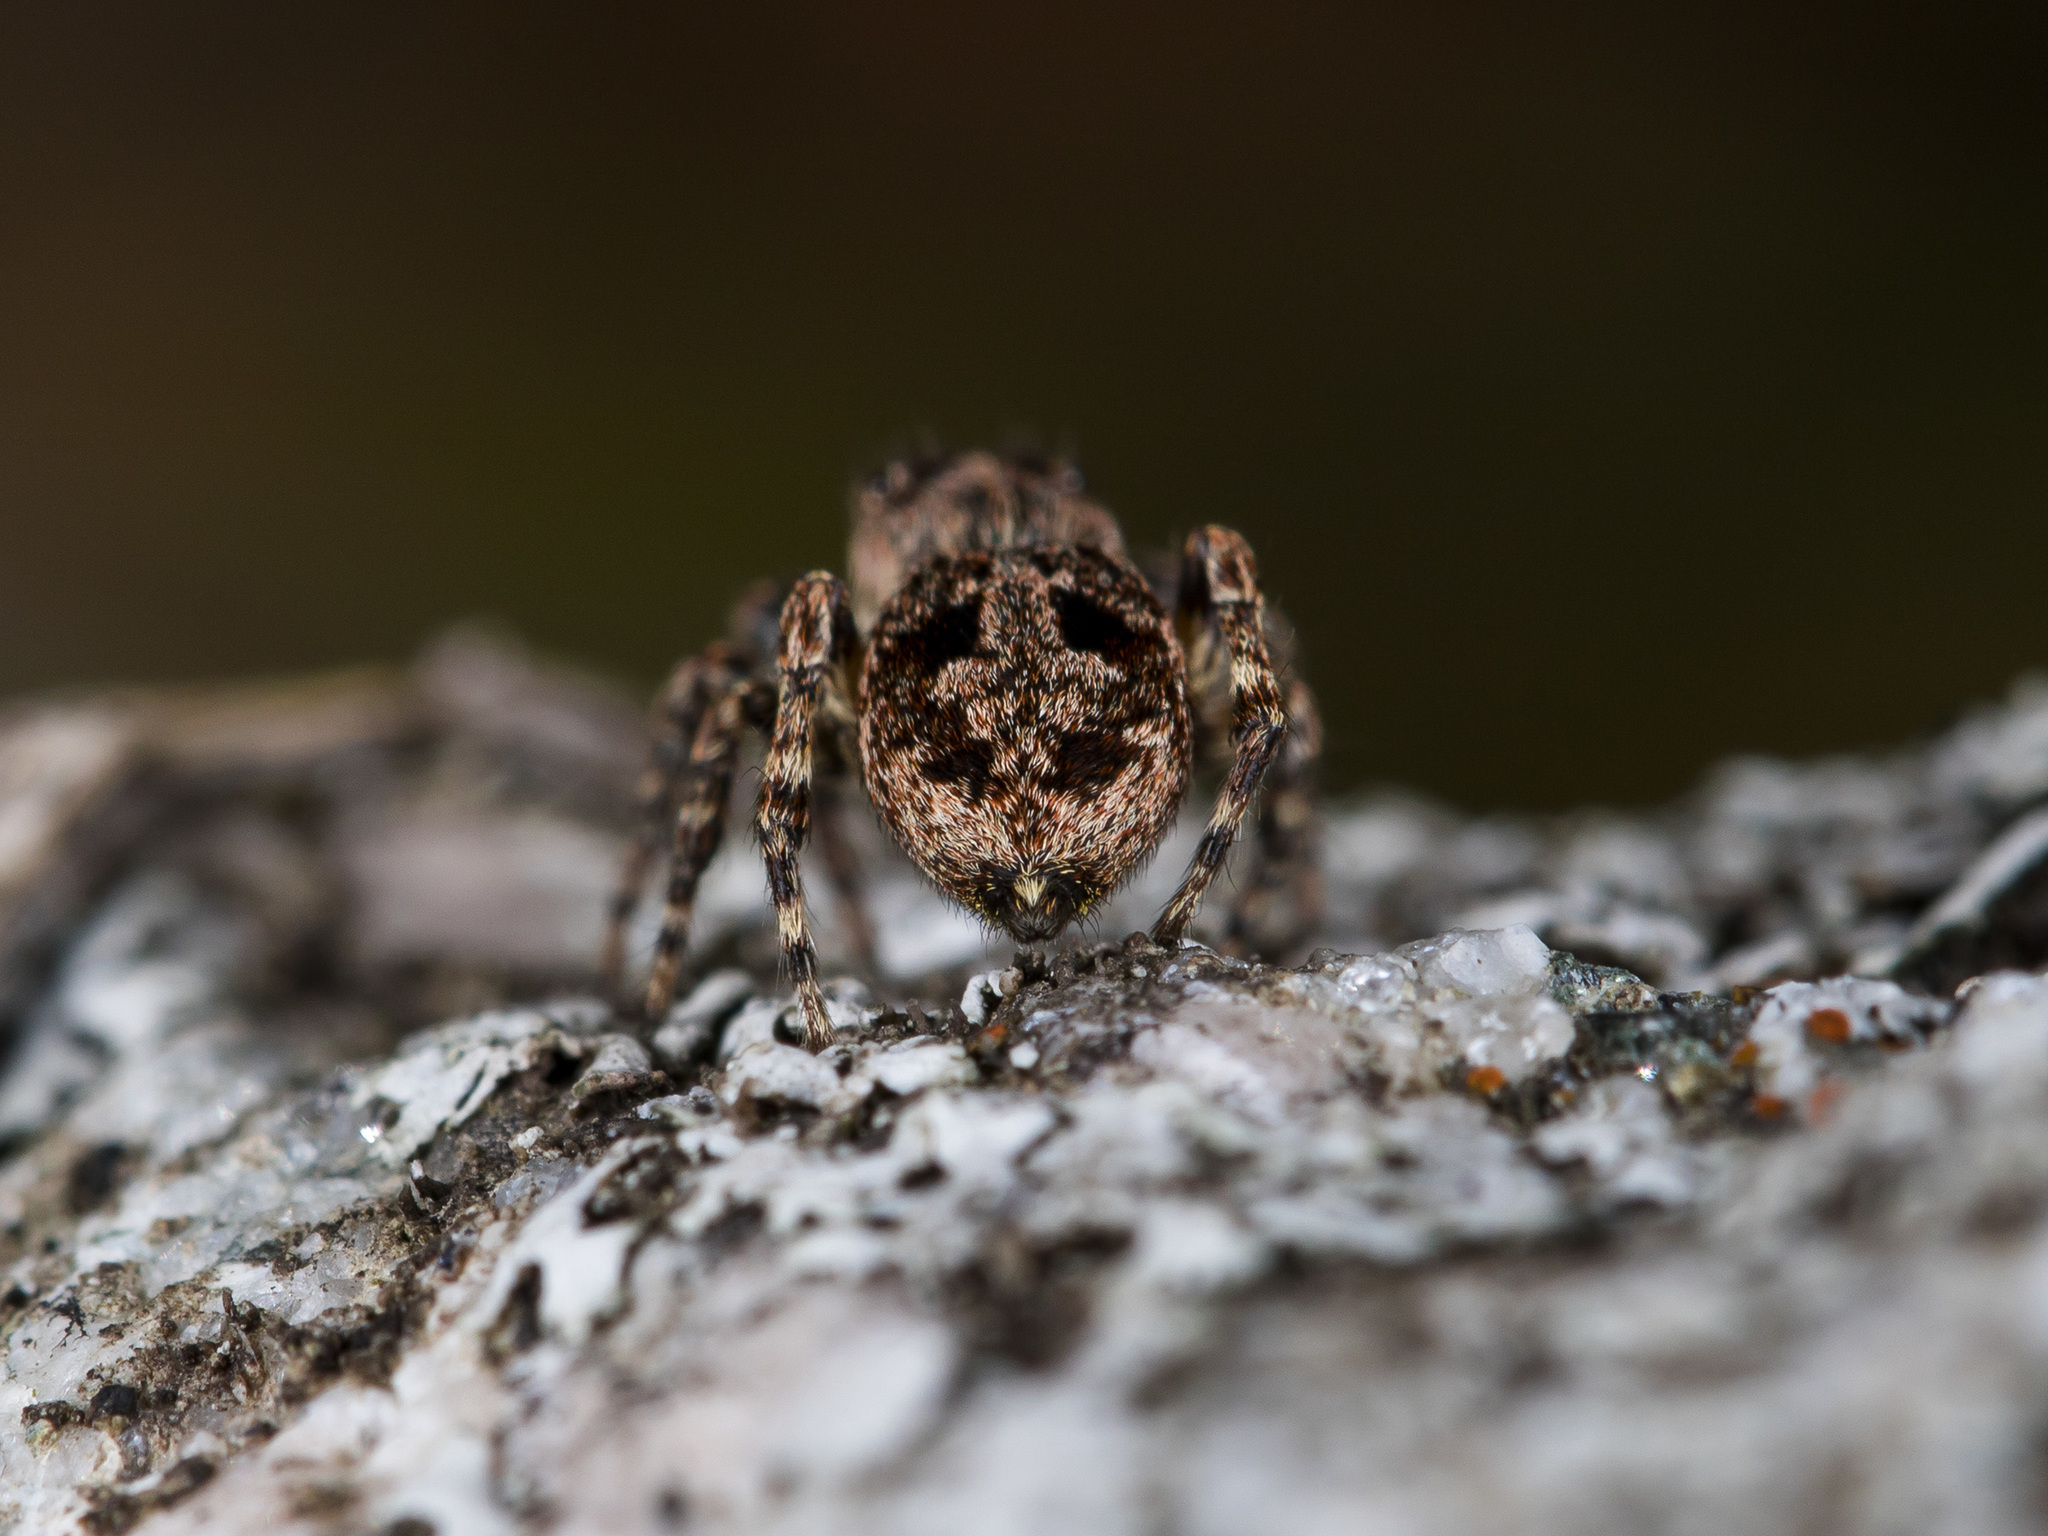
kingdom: Animalia
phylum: Arthropoda
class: Arachnida
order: Araneae
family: Salticidae
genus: Attulus
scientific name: Attulus monstrabilis
